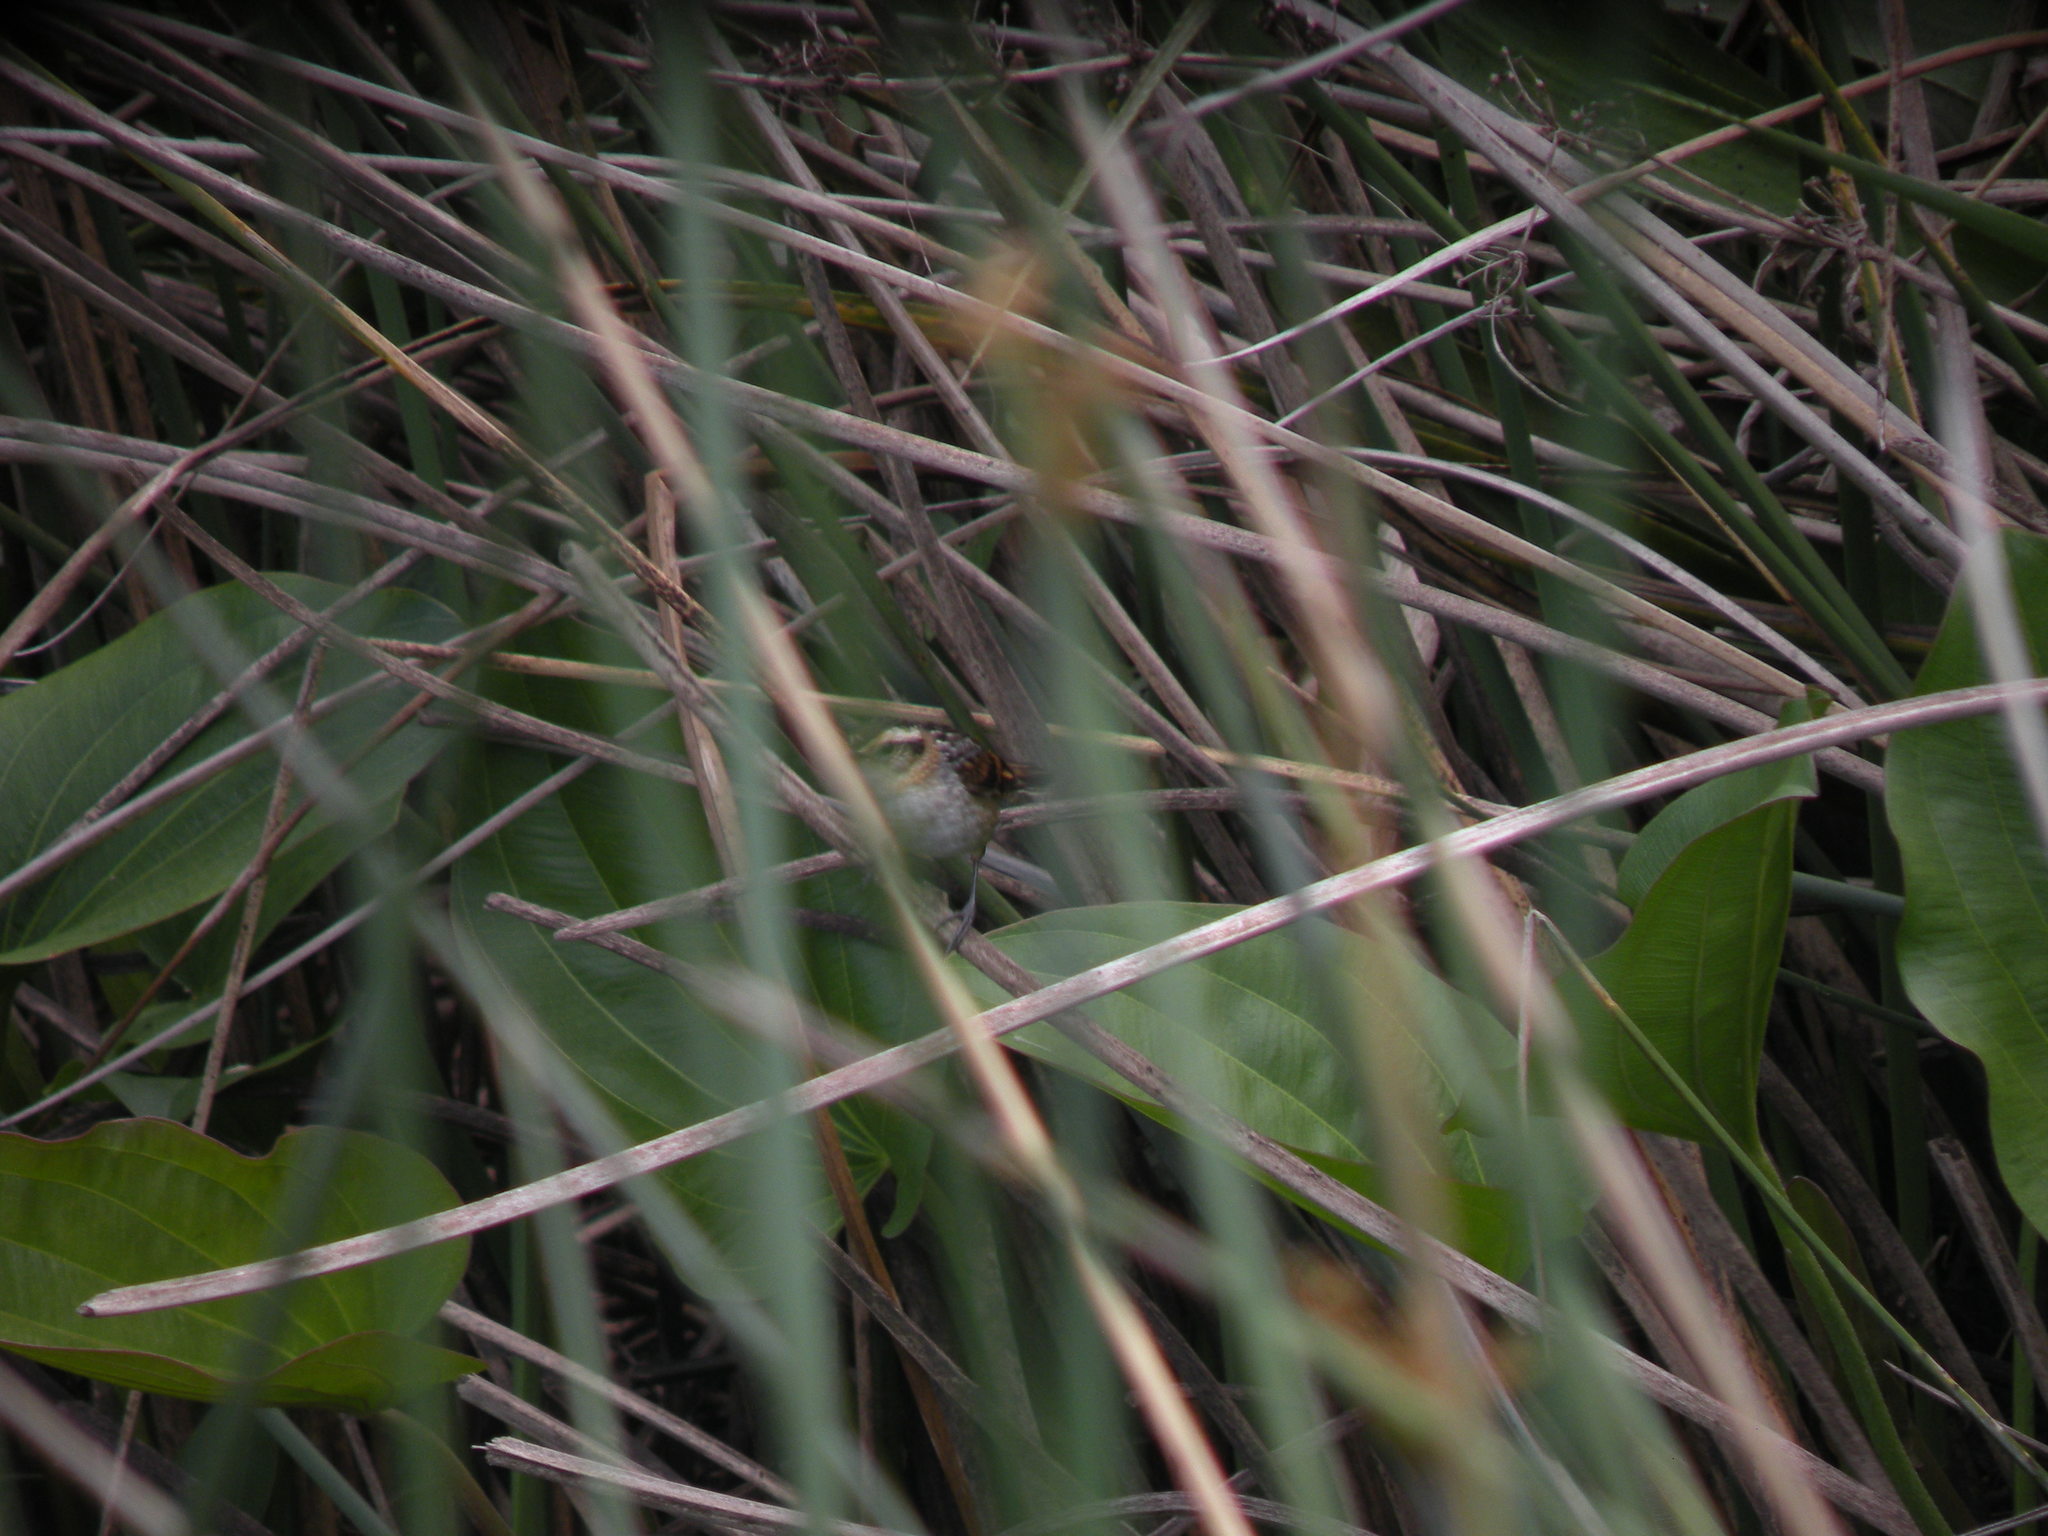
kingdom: Animalia
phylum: Chordata
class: Aves
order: Passeriformes
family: Furnariidae
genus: Phleocryptes
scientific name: Phleocryptes melanops
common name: Wren-like rushbird
